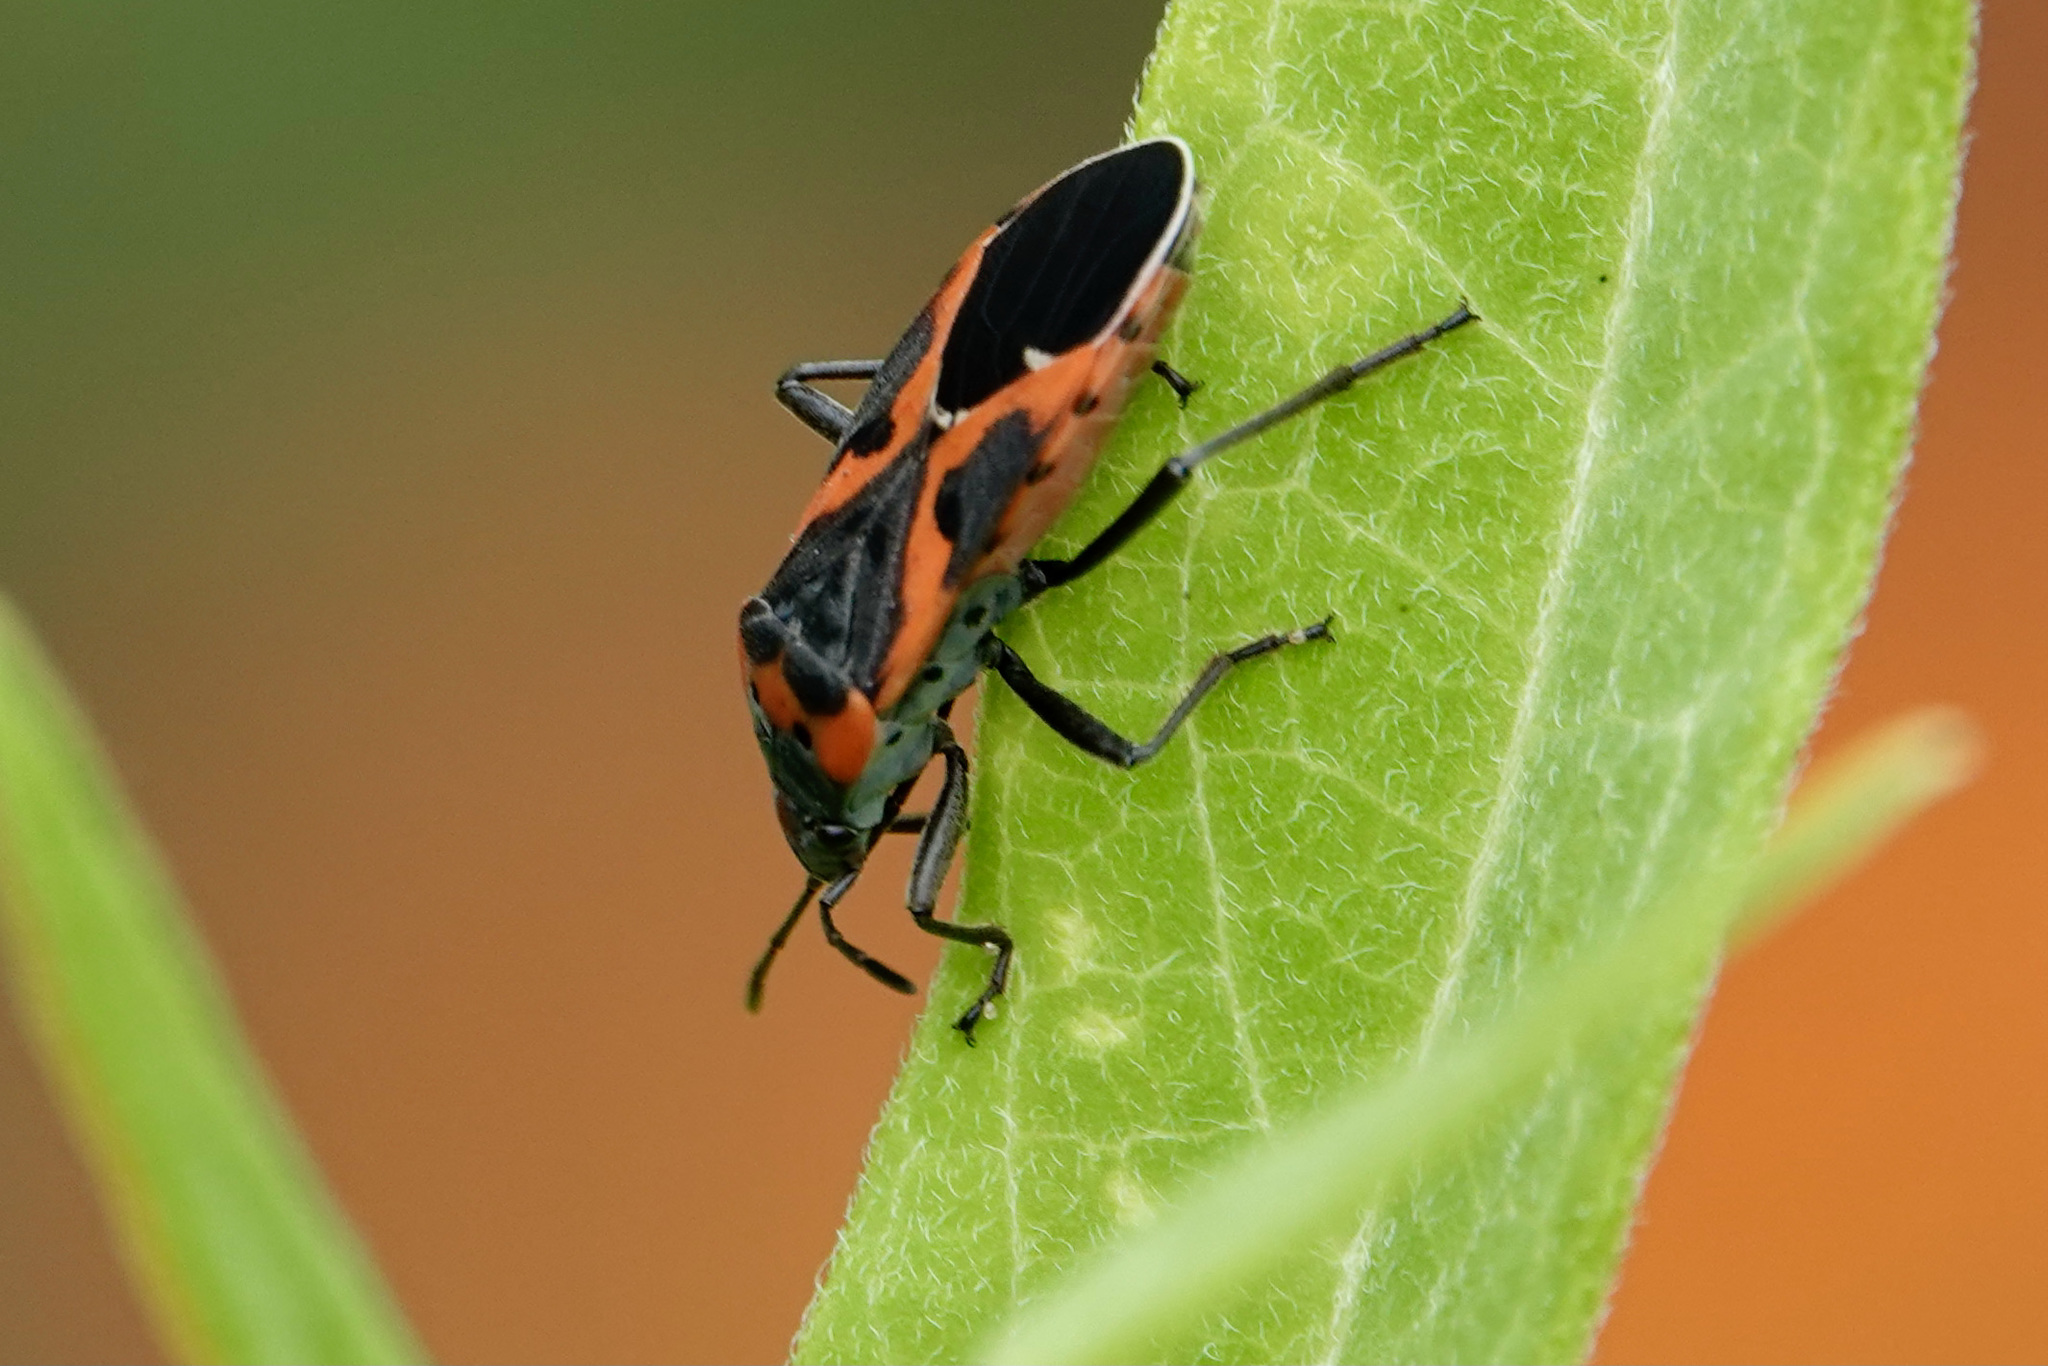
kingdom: Animalia
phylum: Arthropoda
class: Insecta
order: Hemiptera
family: Lygaeidae
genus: Lygaeus
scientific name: Lygaeus kalmii
